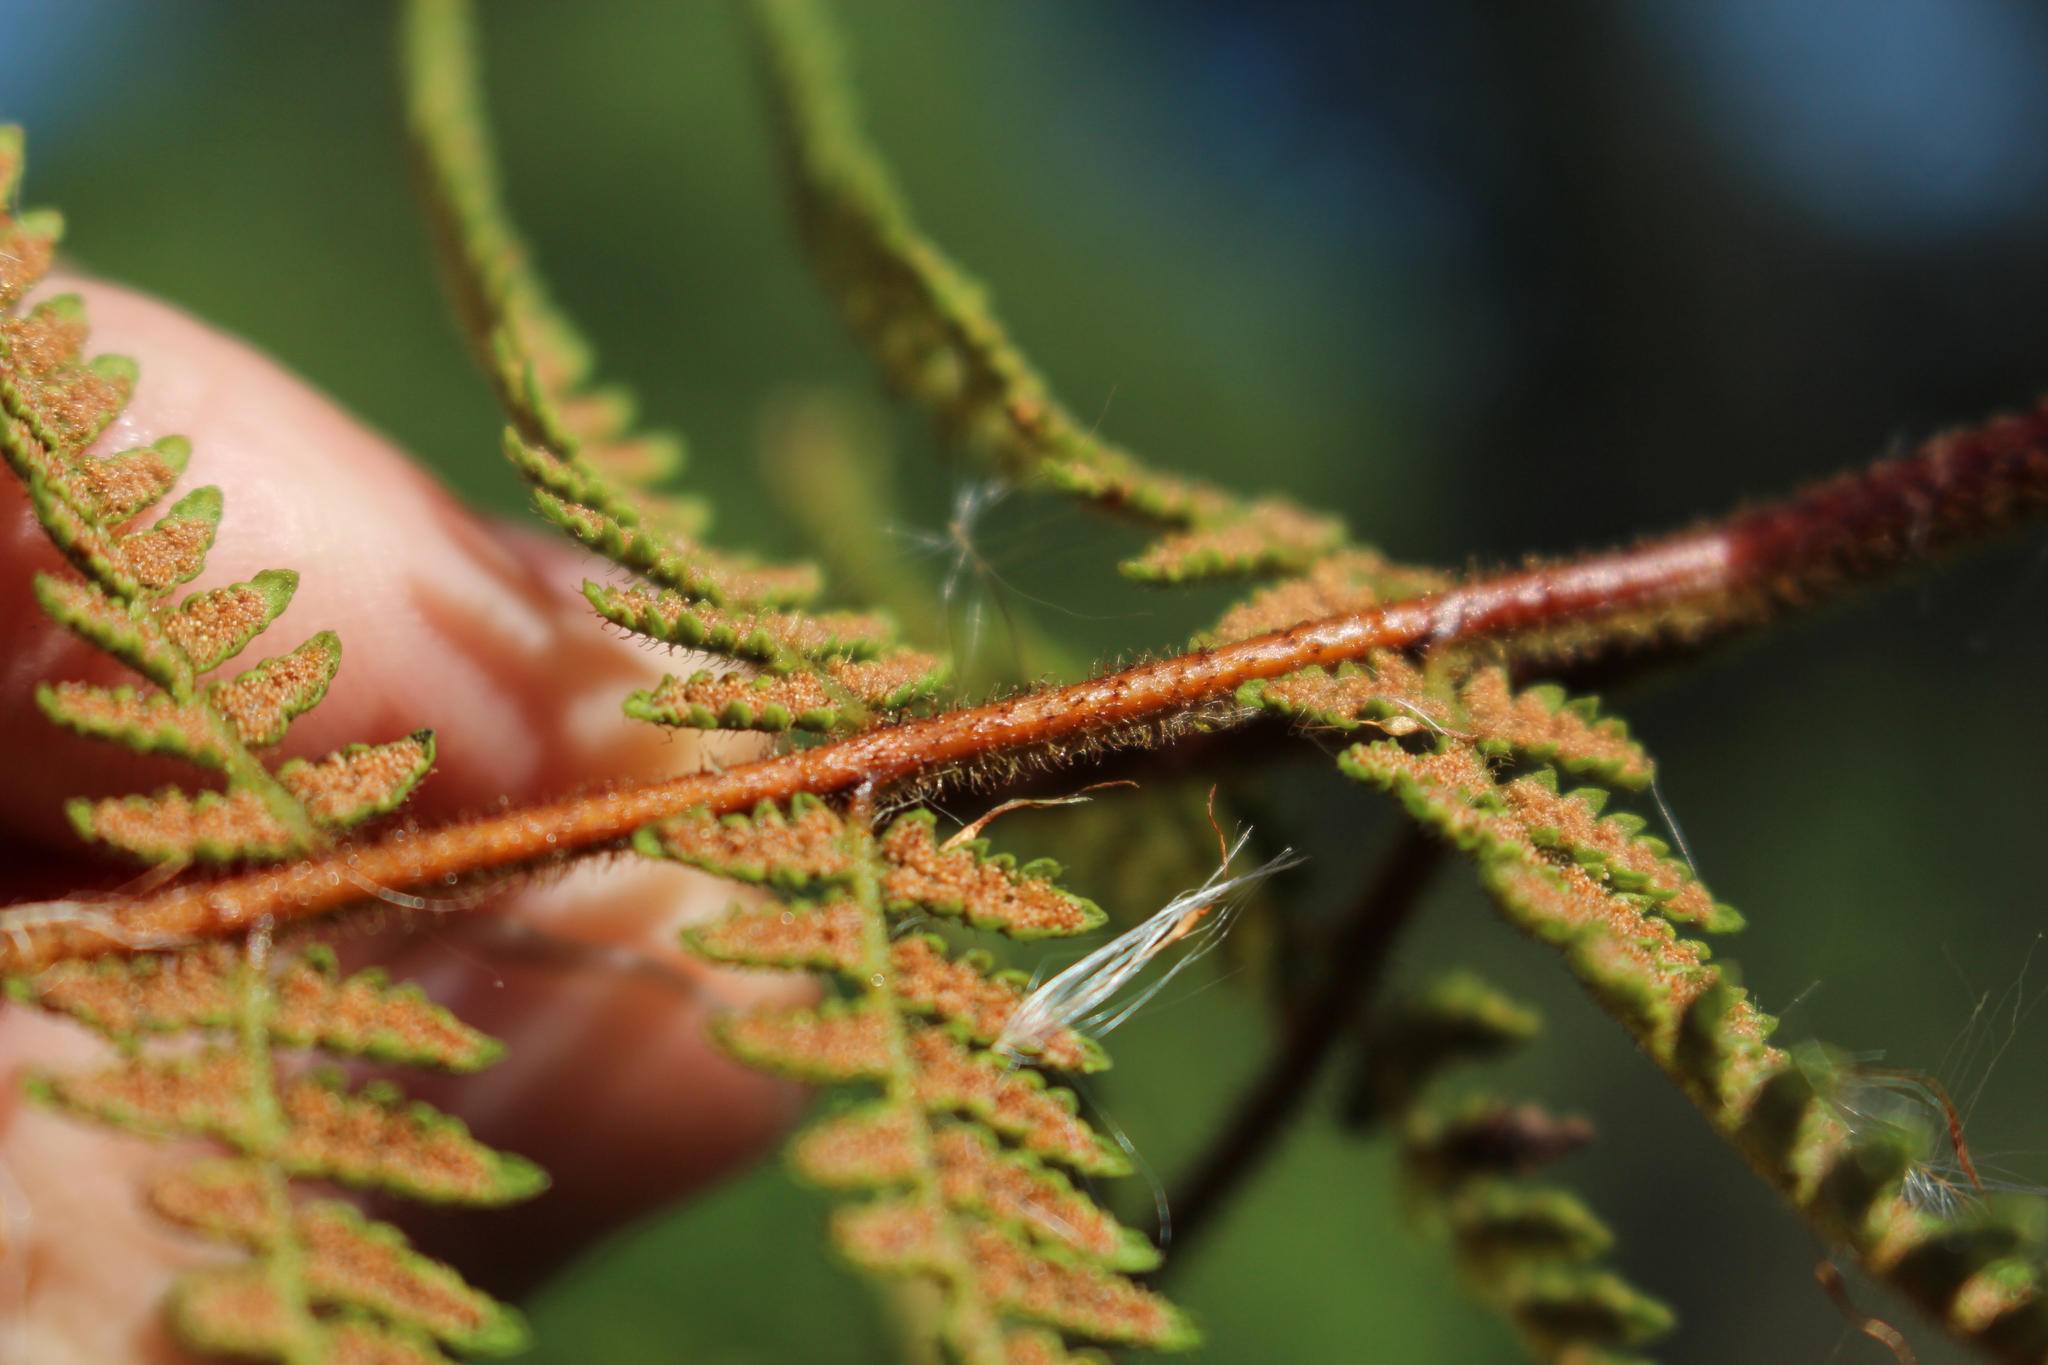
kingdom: Plantae
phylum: Tracheophyta
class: Polypodiopsida
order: Polypodiales
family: Dennstaedtiaceae
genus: Hypolepis
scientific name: Hypolepis rugosula
